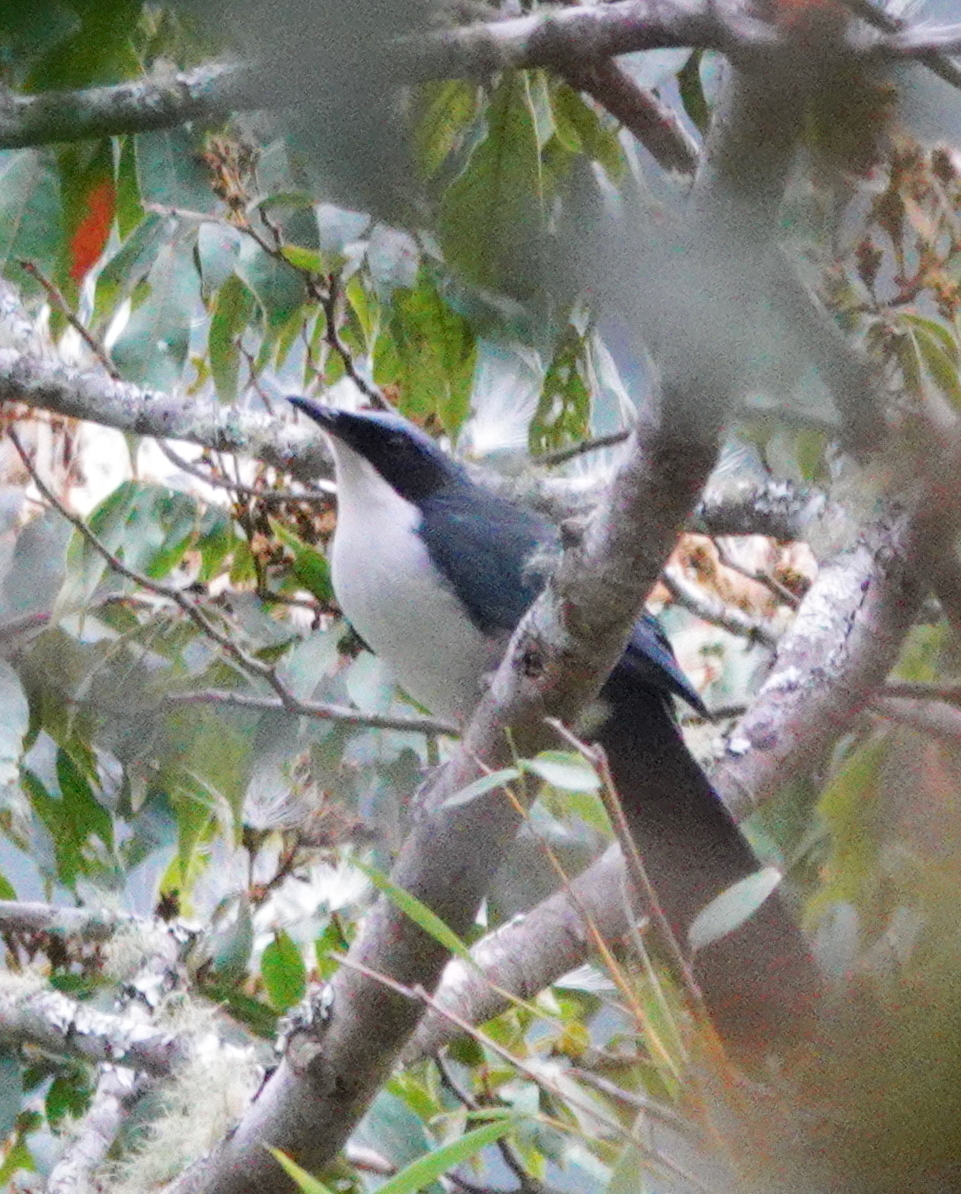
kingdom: Animalia
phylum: Chordata
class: Aves
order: Passeriformes
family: Mimidae
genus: Melanotis
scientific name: Melanotis hypoleucus
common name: Blue-and-white mockingbird
